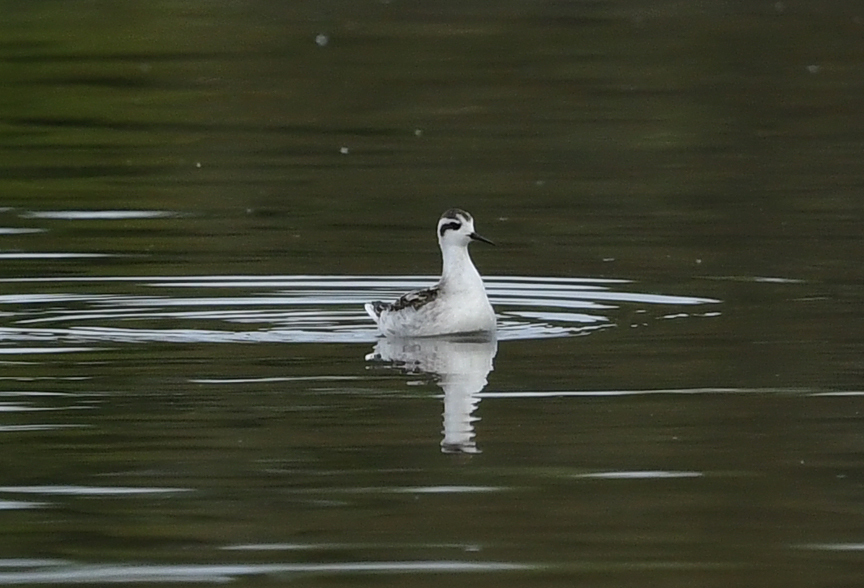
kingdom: Animalia
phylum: Chordata
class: Aves
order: Charadriiformes
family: Scolopacidae
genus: Phalaropus
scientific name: Phalaropus lobatus
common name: Red-necked phalarope
